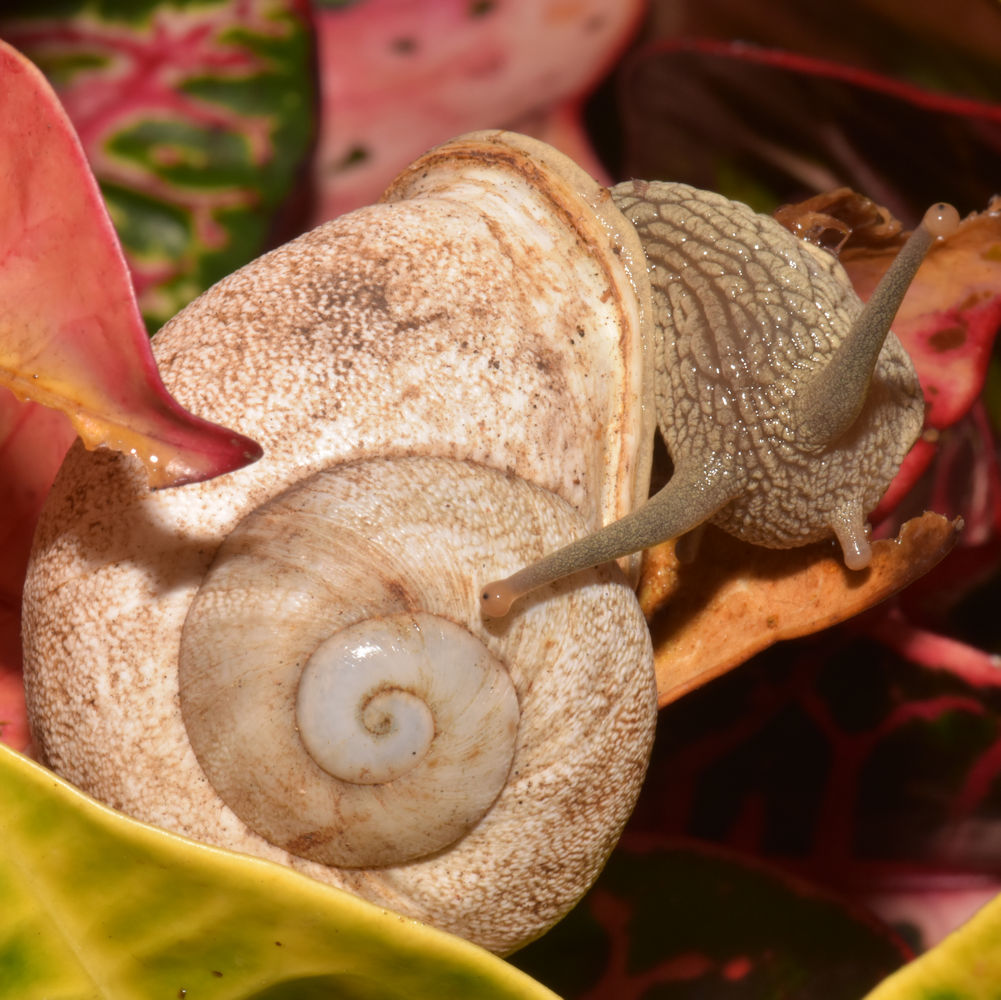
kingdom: Animalia
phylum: Mollusca
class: Gastropoda
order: Stylommatophora
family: Pleurodontidae
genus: Thelidomus
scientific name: Thelidomus aspera
